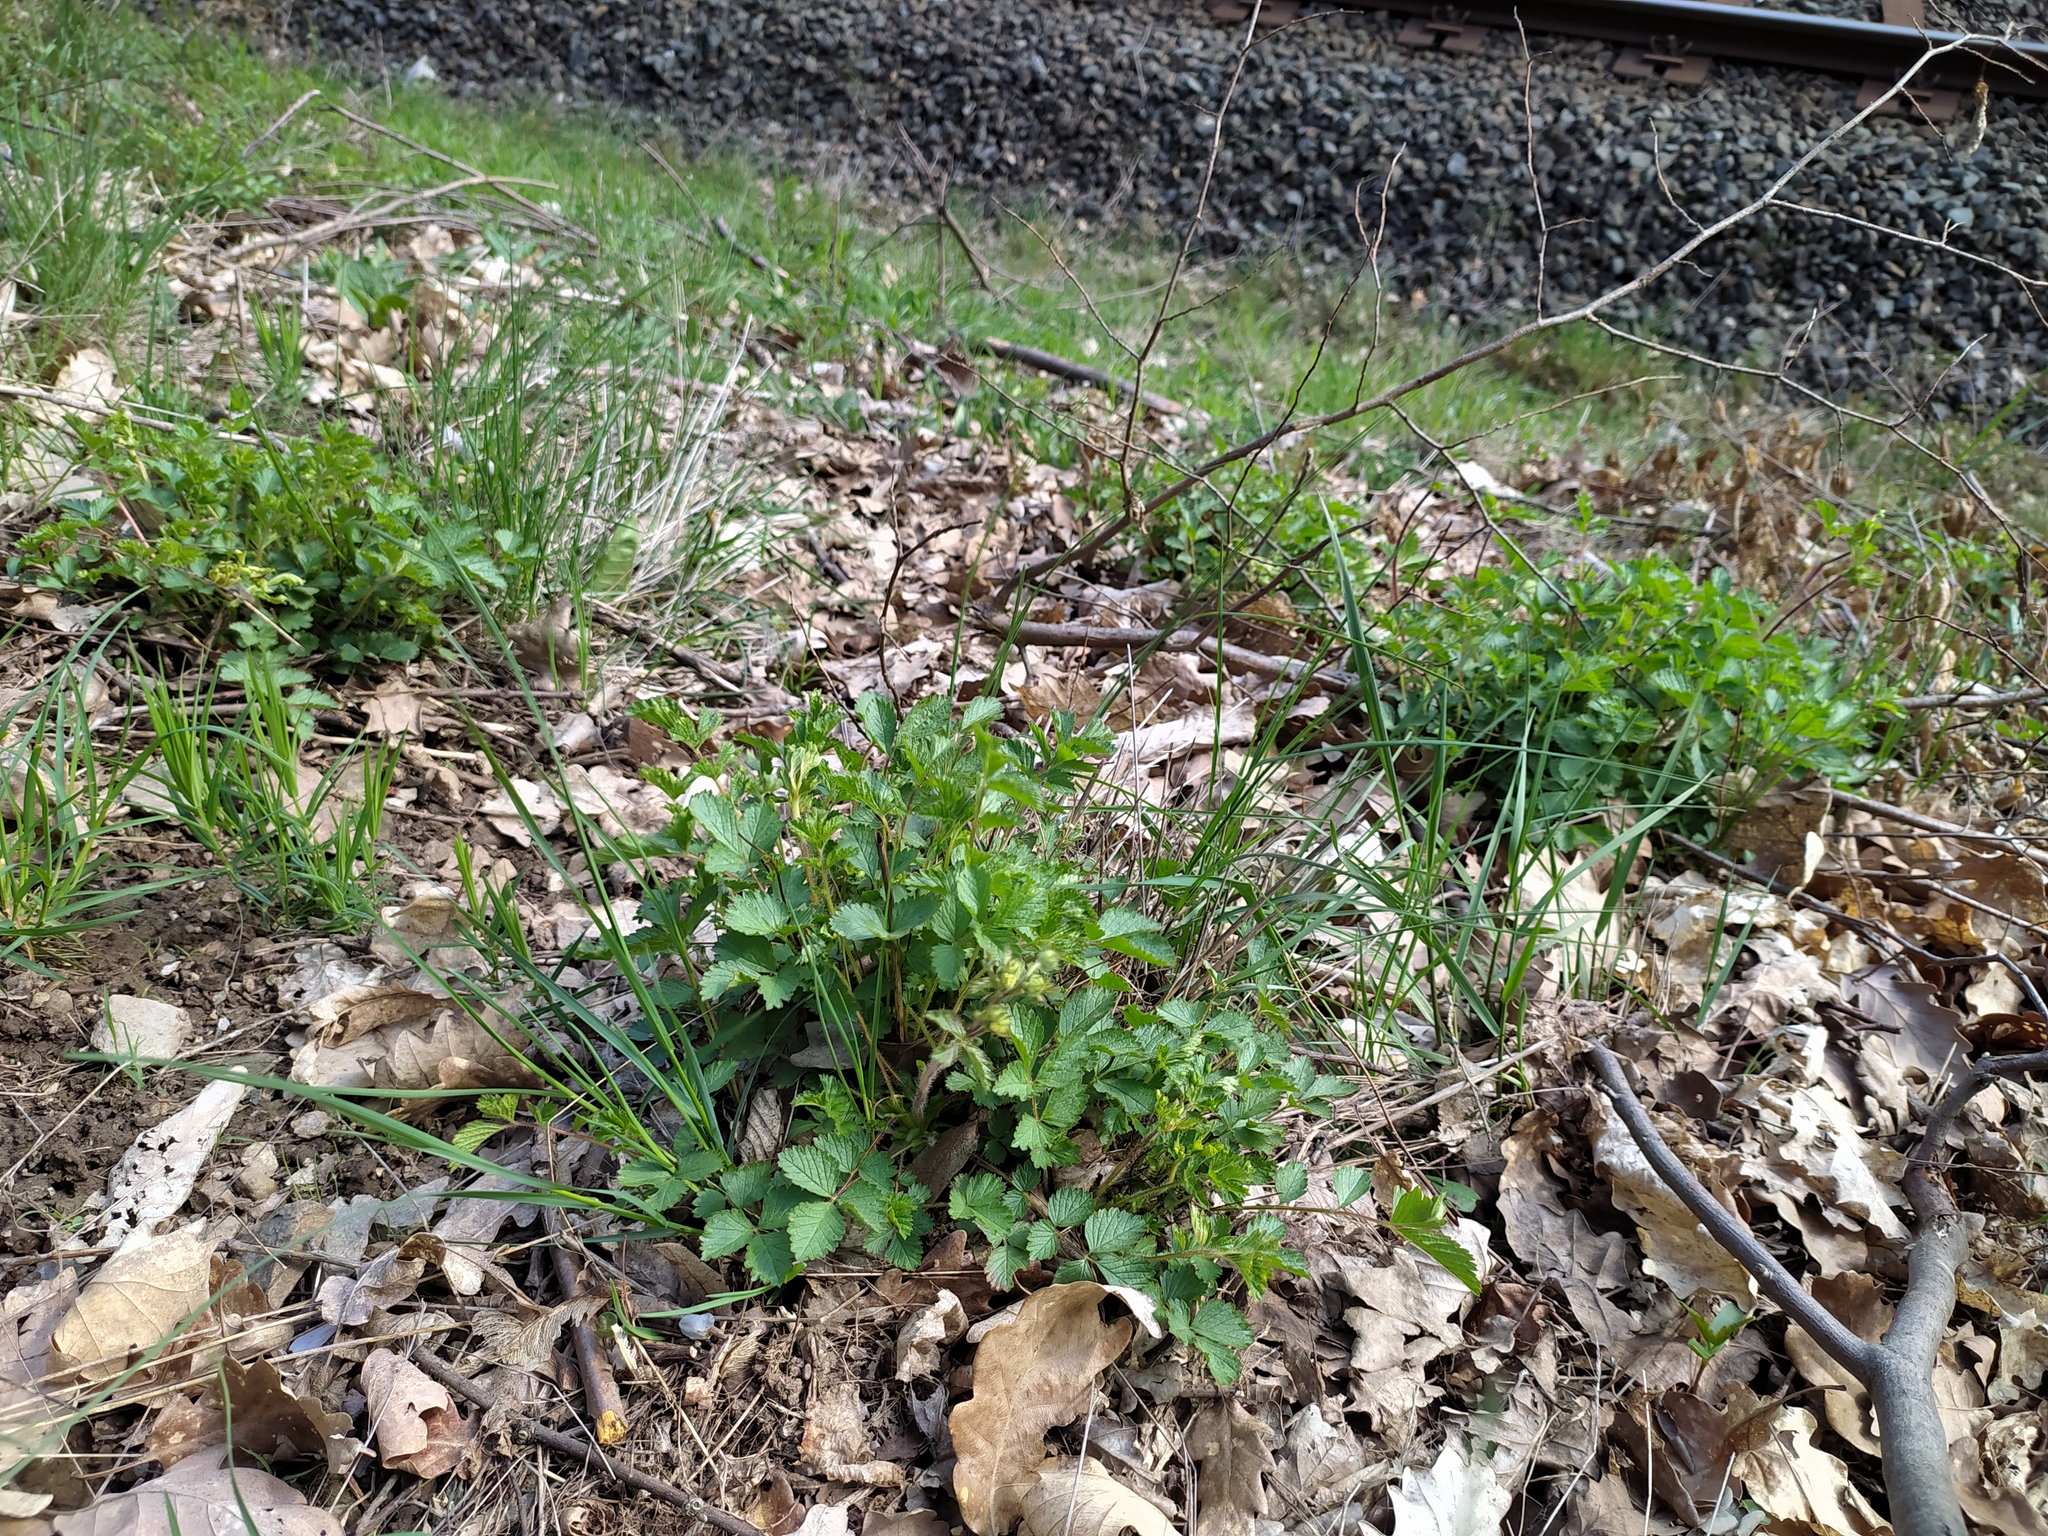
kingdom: Plantae
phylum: Tracheophyta
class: Magnoliopsida
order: Rosales
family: Rosaceae
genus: Drymocallis
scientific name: Drymocallis rupestris
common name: Rock cinquefoil
